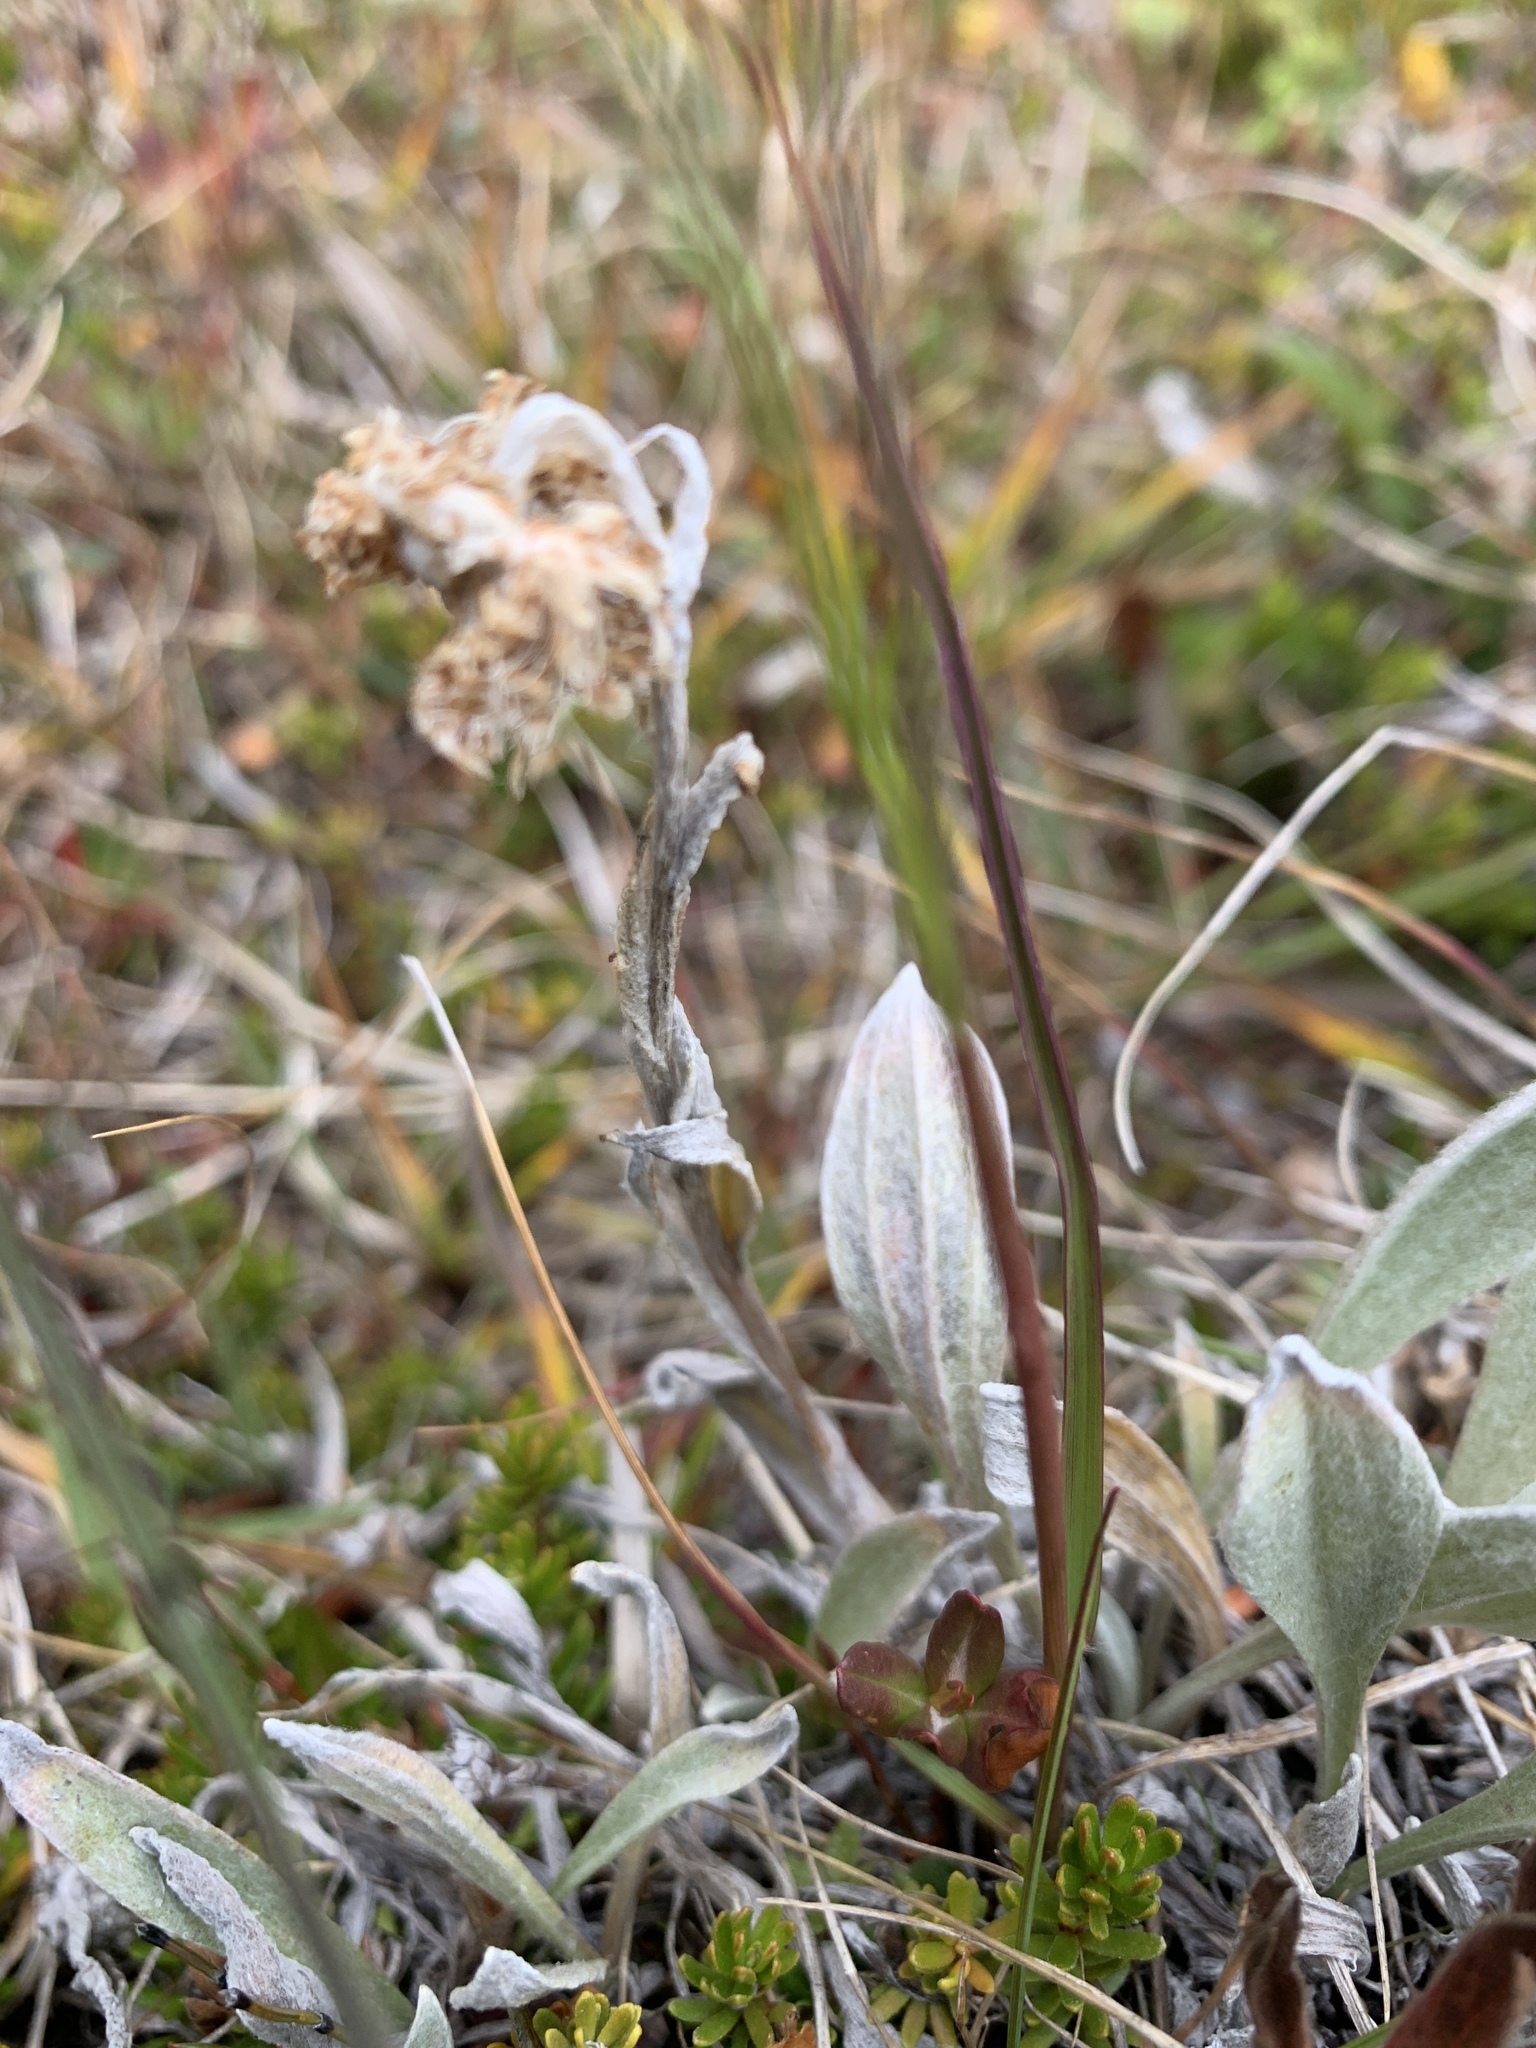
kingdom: Plantae
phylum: Tracheophyta
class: Magnoliopsida
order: Asterales
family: Asteraceae
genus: Antennaria
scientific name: Antennaria lanata
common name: Woolly pussytoes
